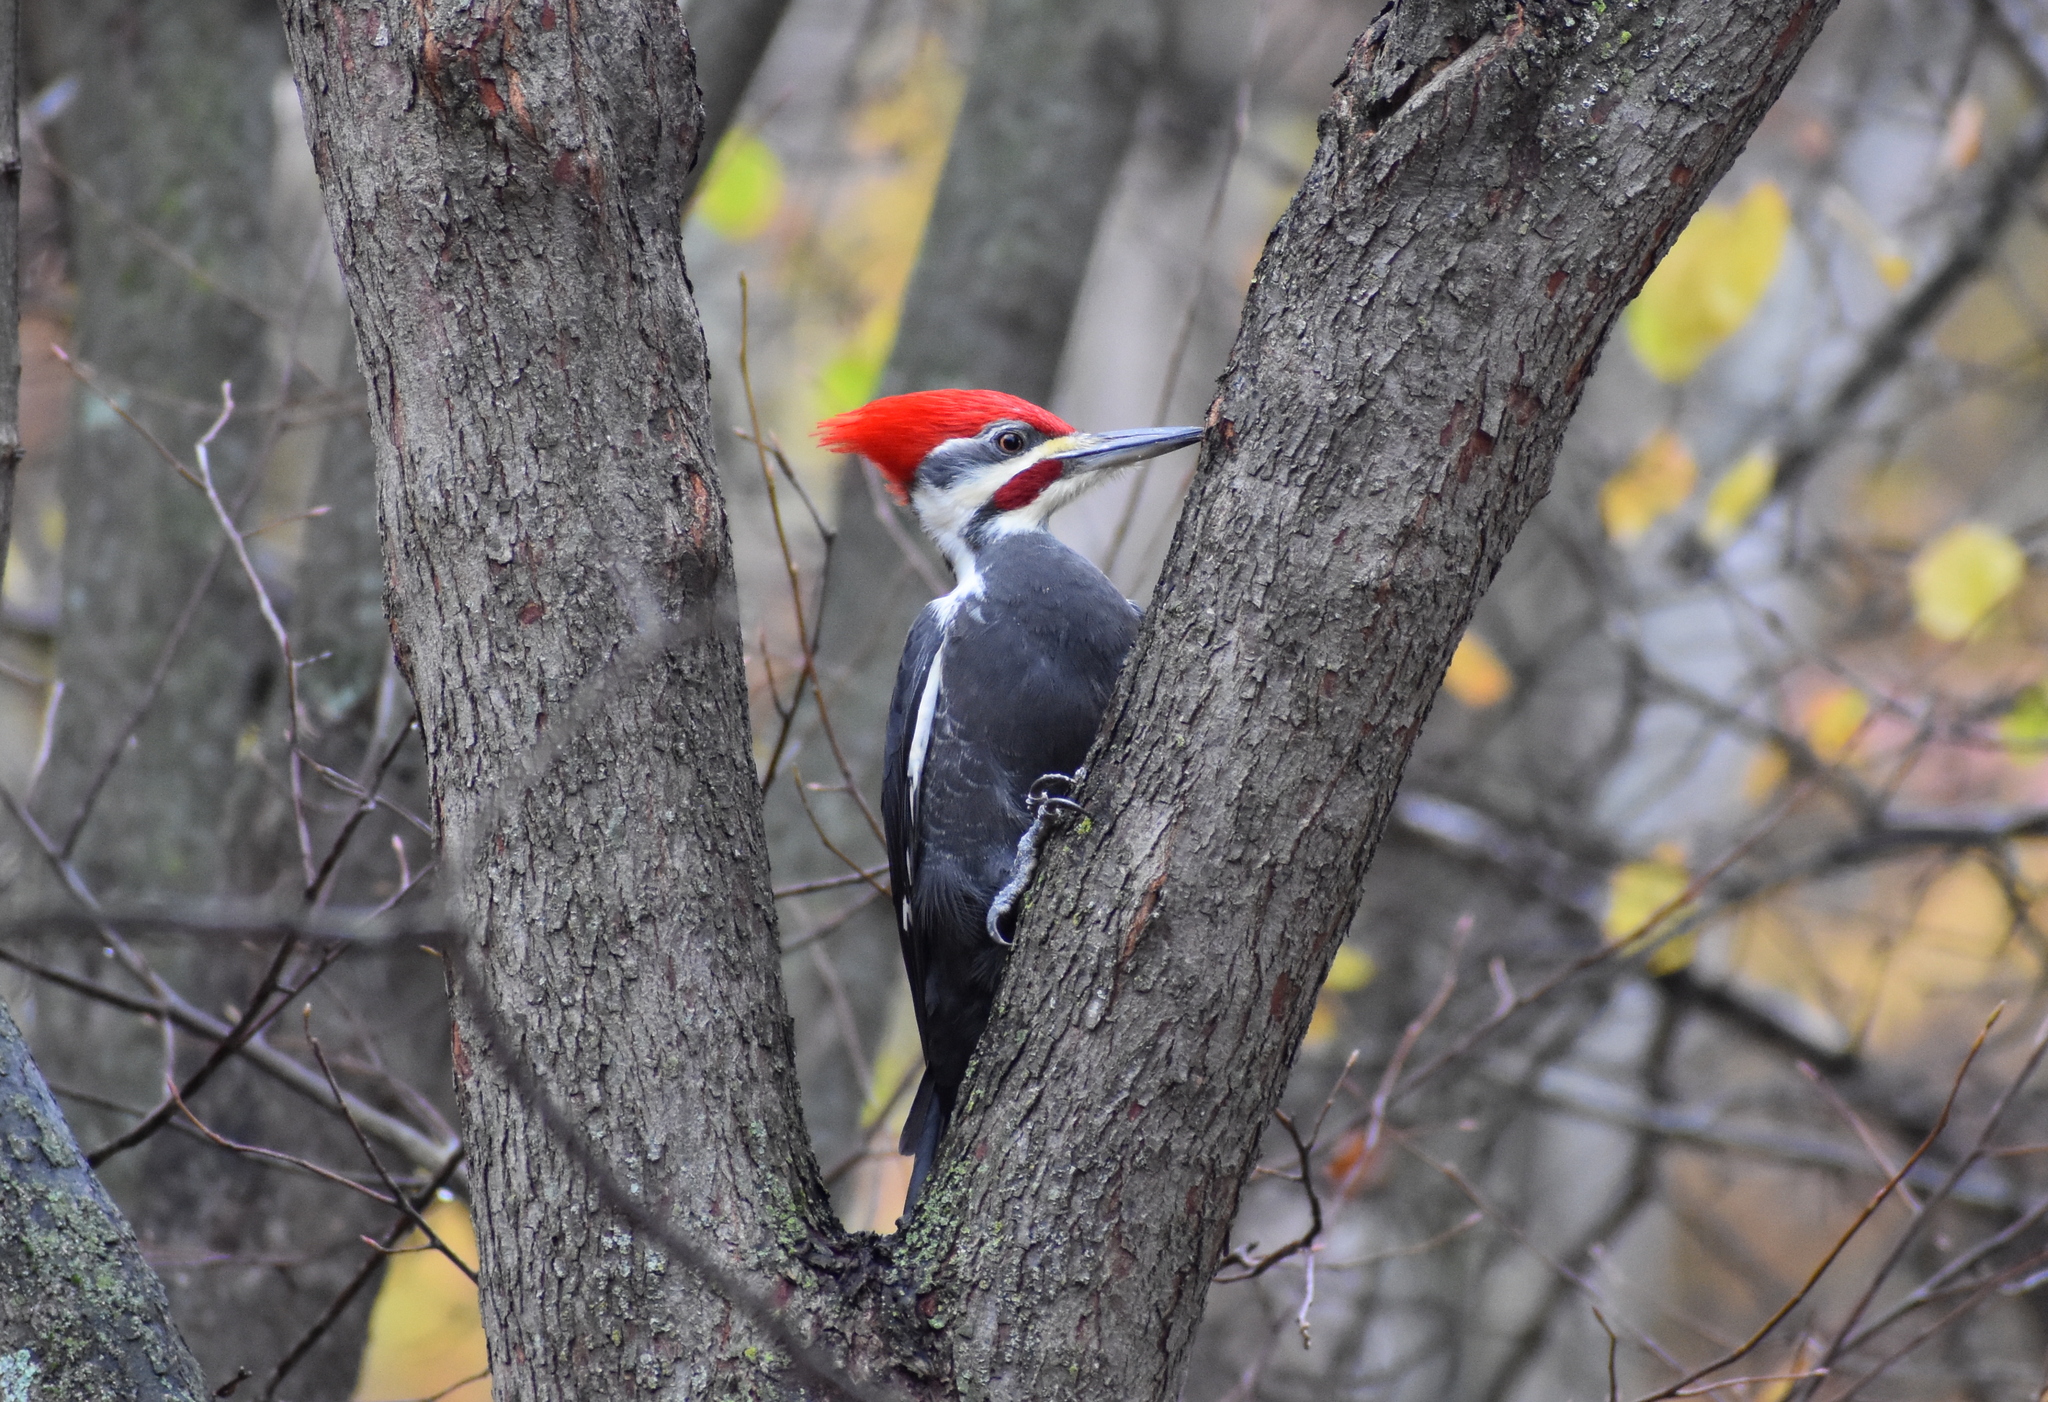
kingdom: Animalia
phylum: Chordata
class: Aves
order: Piciformes
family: Picidae
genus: Dryocopus
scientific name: Dryocopus pileatus
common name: Pileated woodpecker
